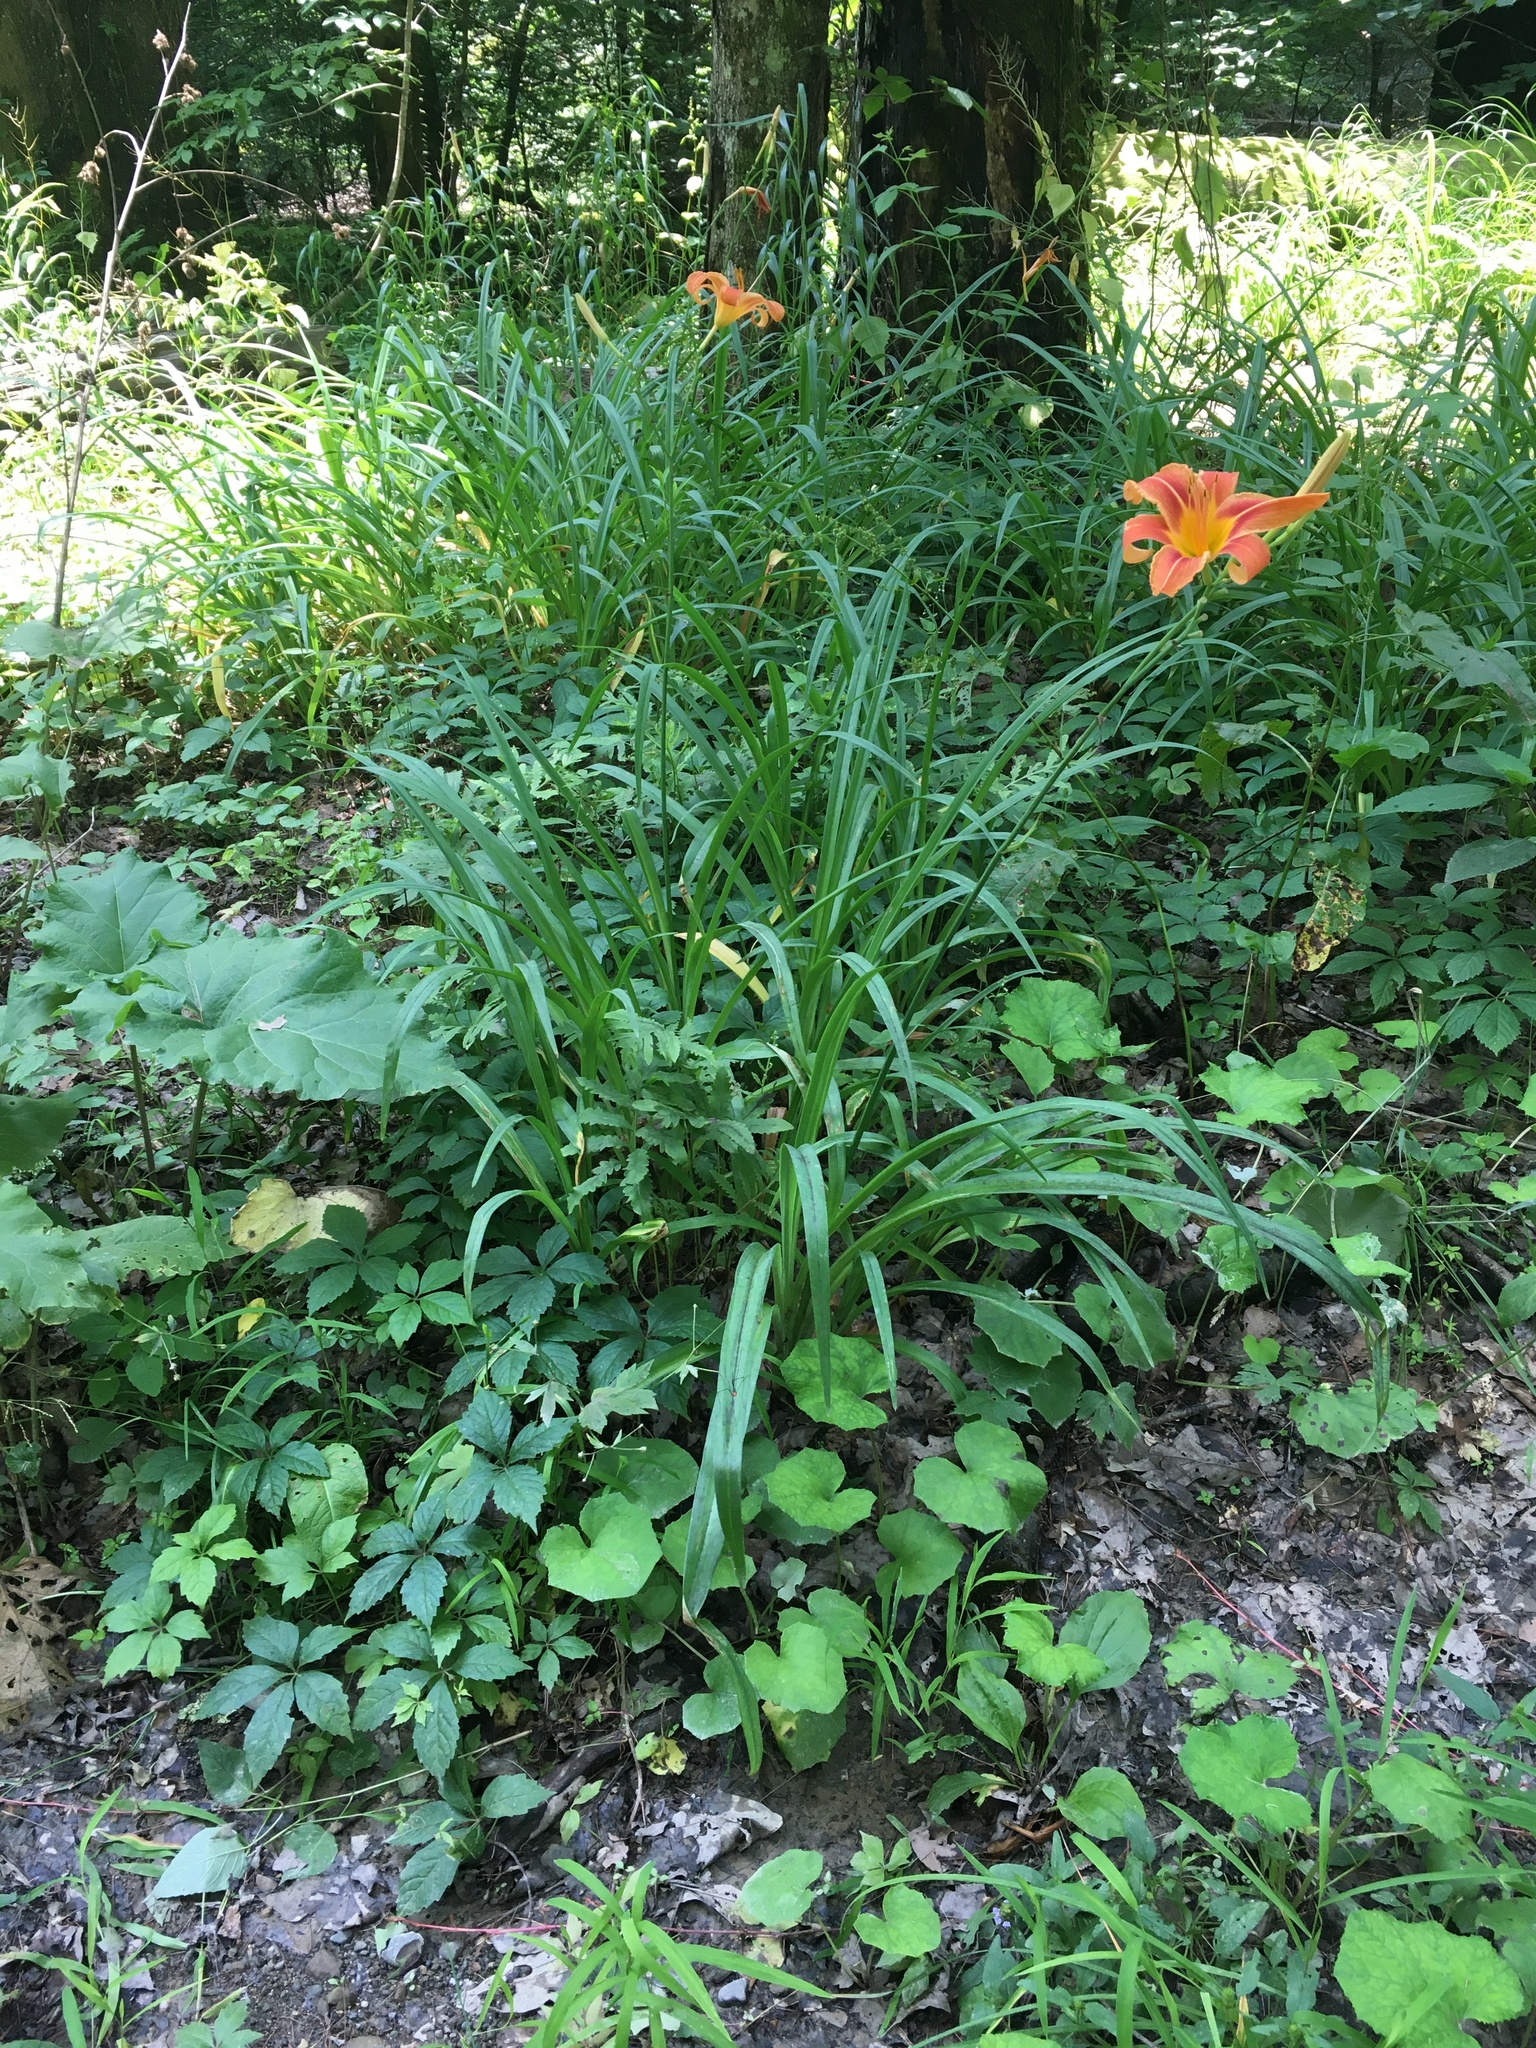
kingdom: Plantae
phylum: Tracheophyta
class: Liliopsida
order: Asparagales
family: Asphodelaceae
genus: Hemerocallis
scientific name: Hemerocallis fulva
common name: Orange day-lily
